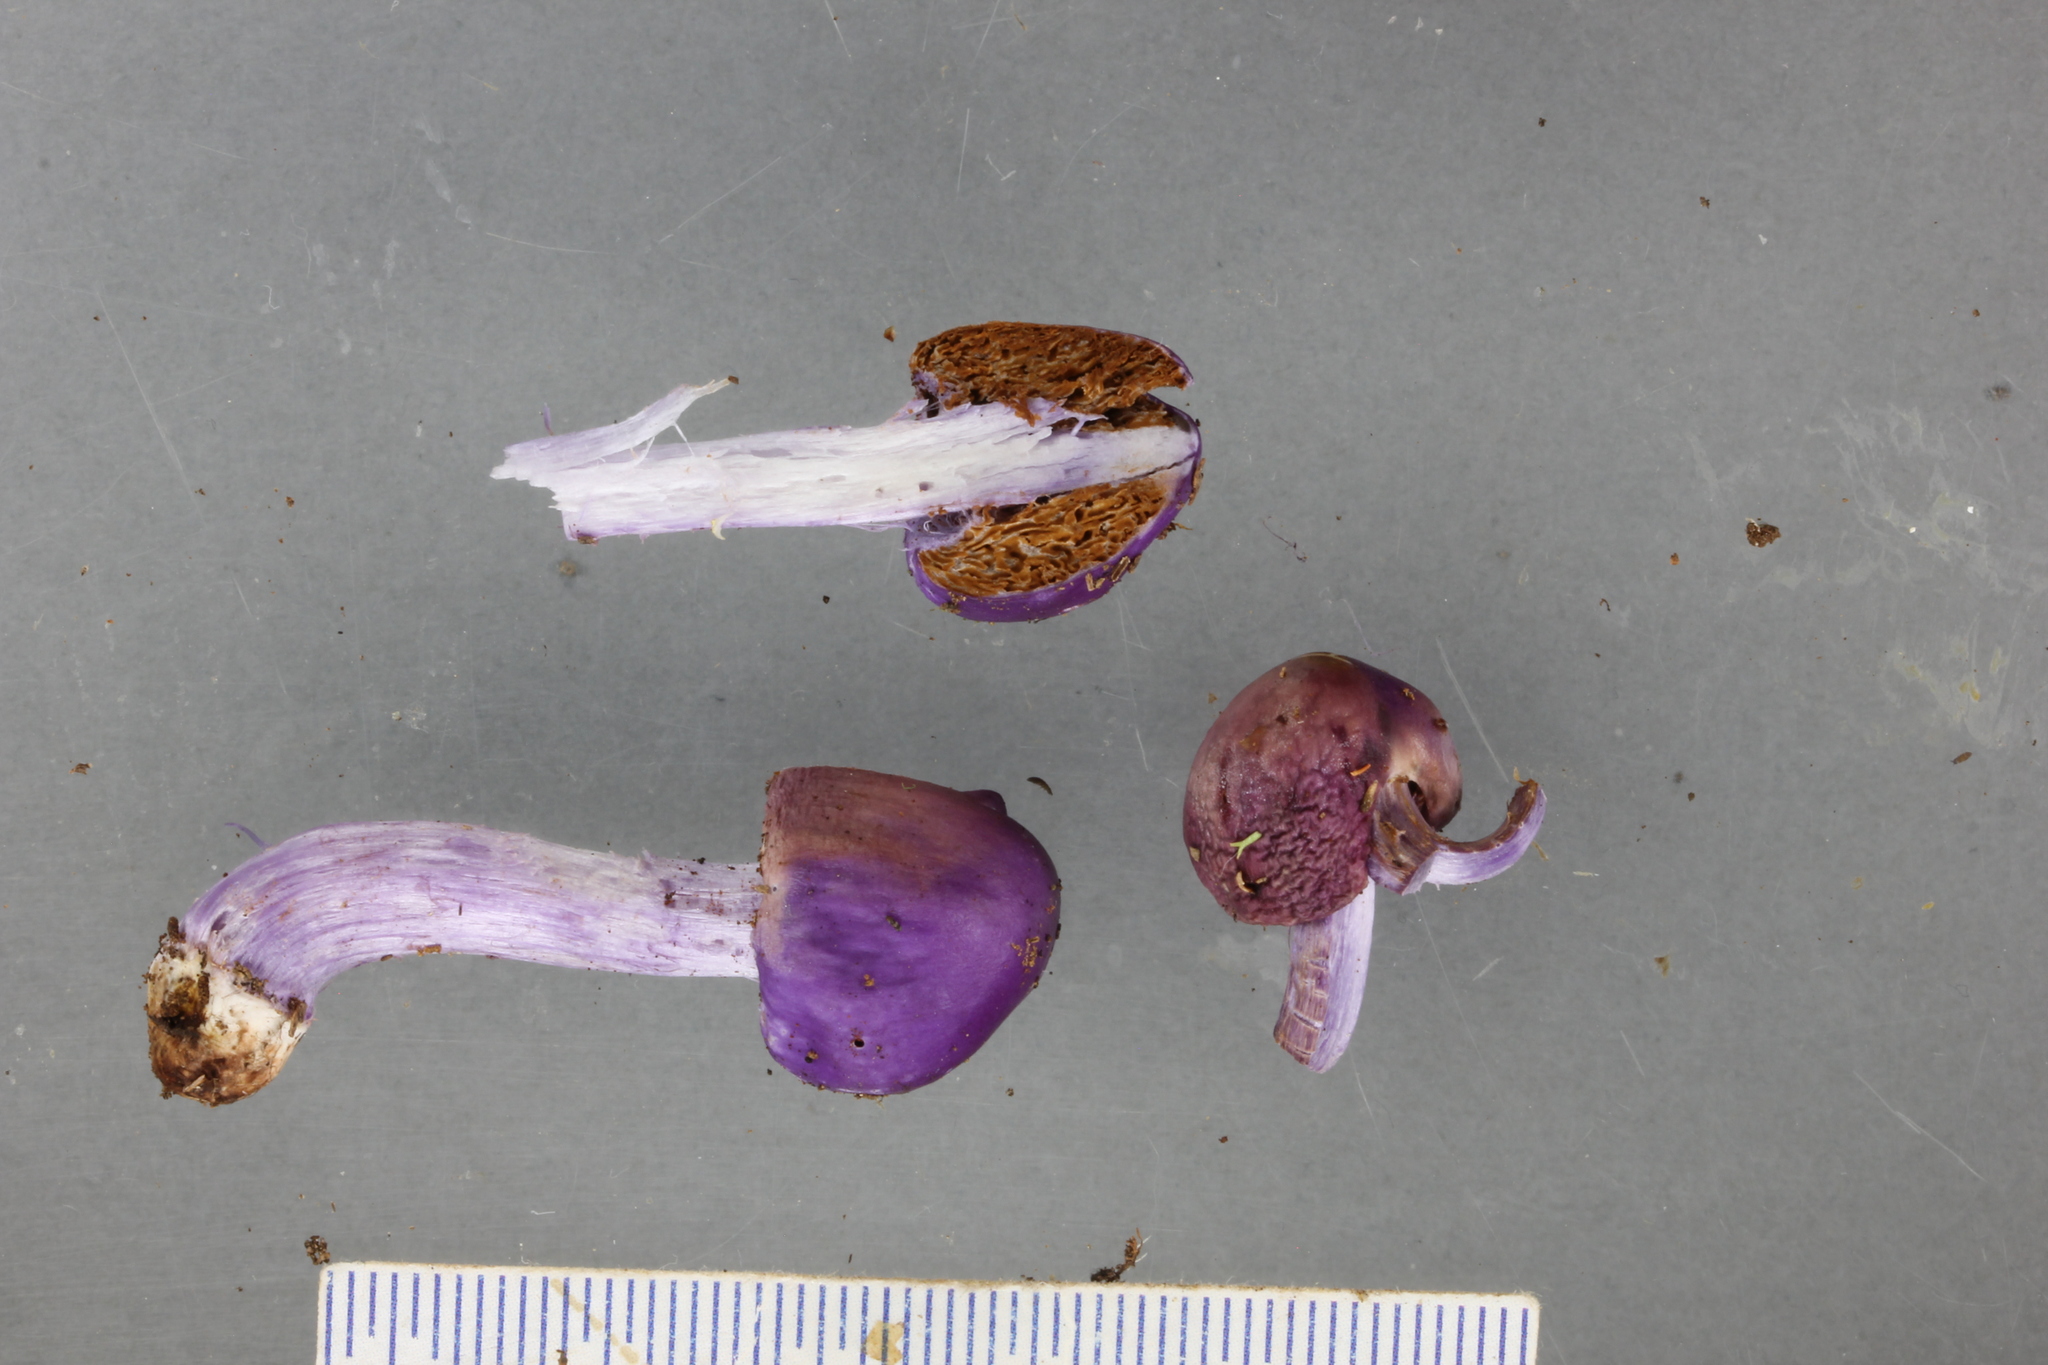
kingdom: Fungi
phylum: Basidiomycota
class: Agaricomycetes
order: Agaricales
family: Cortinariaceae
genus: Cortinarius
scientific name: Cortinarius violaceovolvatus
